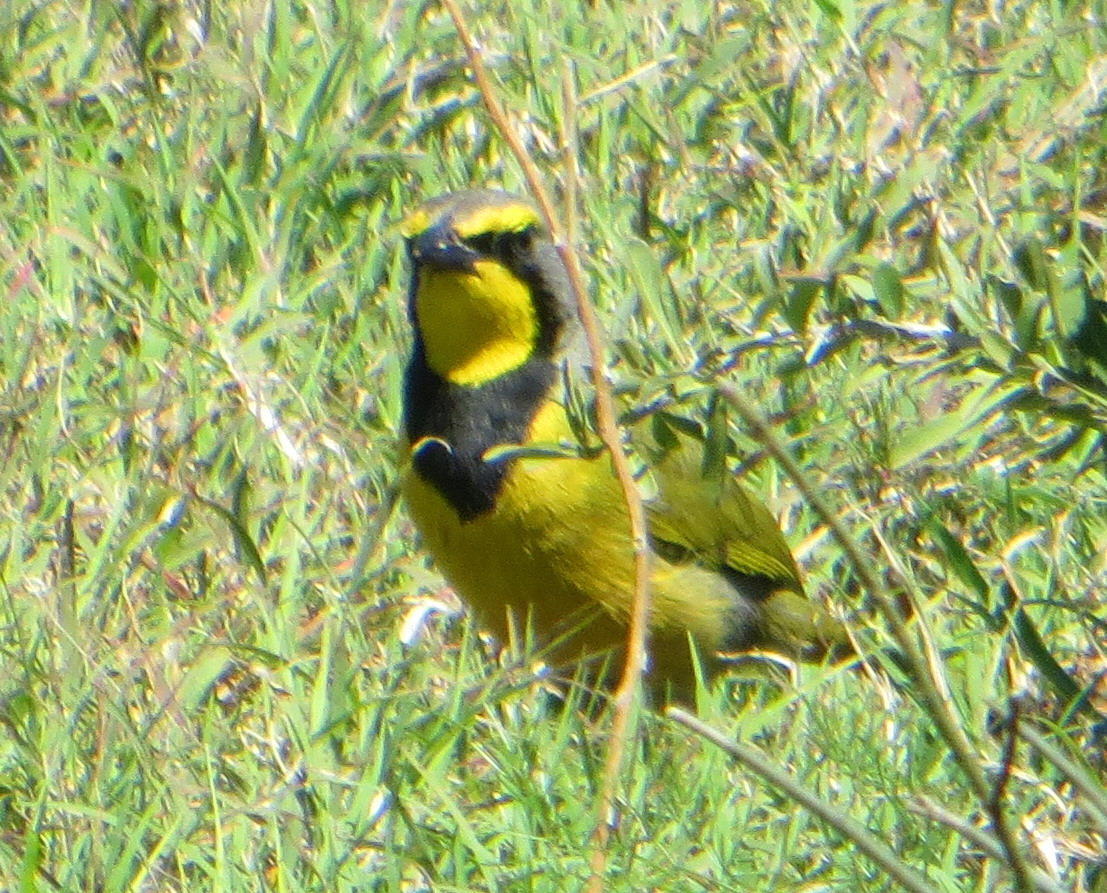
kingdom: Animalia
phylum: Chordata
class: Aves
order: Passeriformes
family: Malaconotidae
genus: Telophorus
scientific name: Telophorus zeylonus
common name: Bokmakierie
